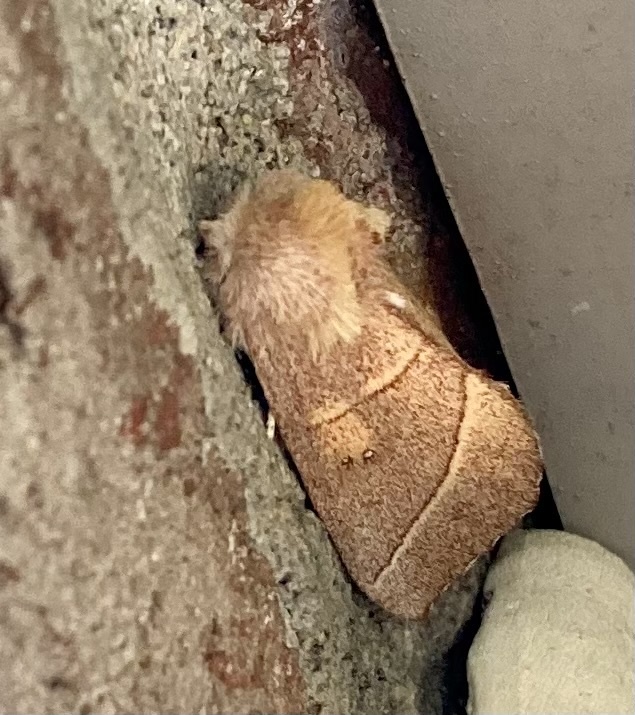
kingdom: Animalia
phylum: Arthropoda
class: Insecta
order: Lepidoptera
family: Notodontidae
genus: Nadata
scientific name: Nadata gibbosa
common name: White-dotted prominent
